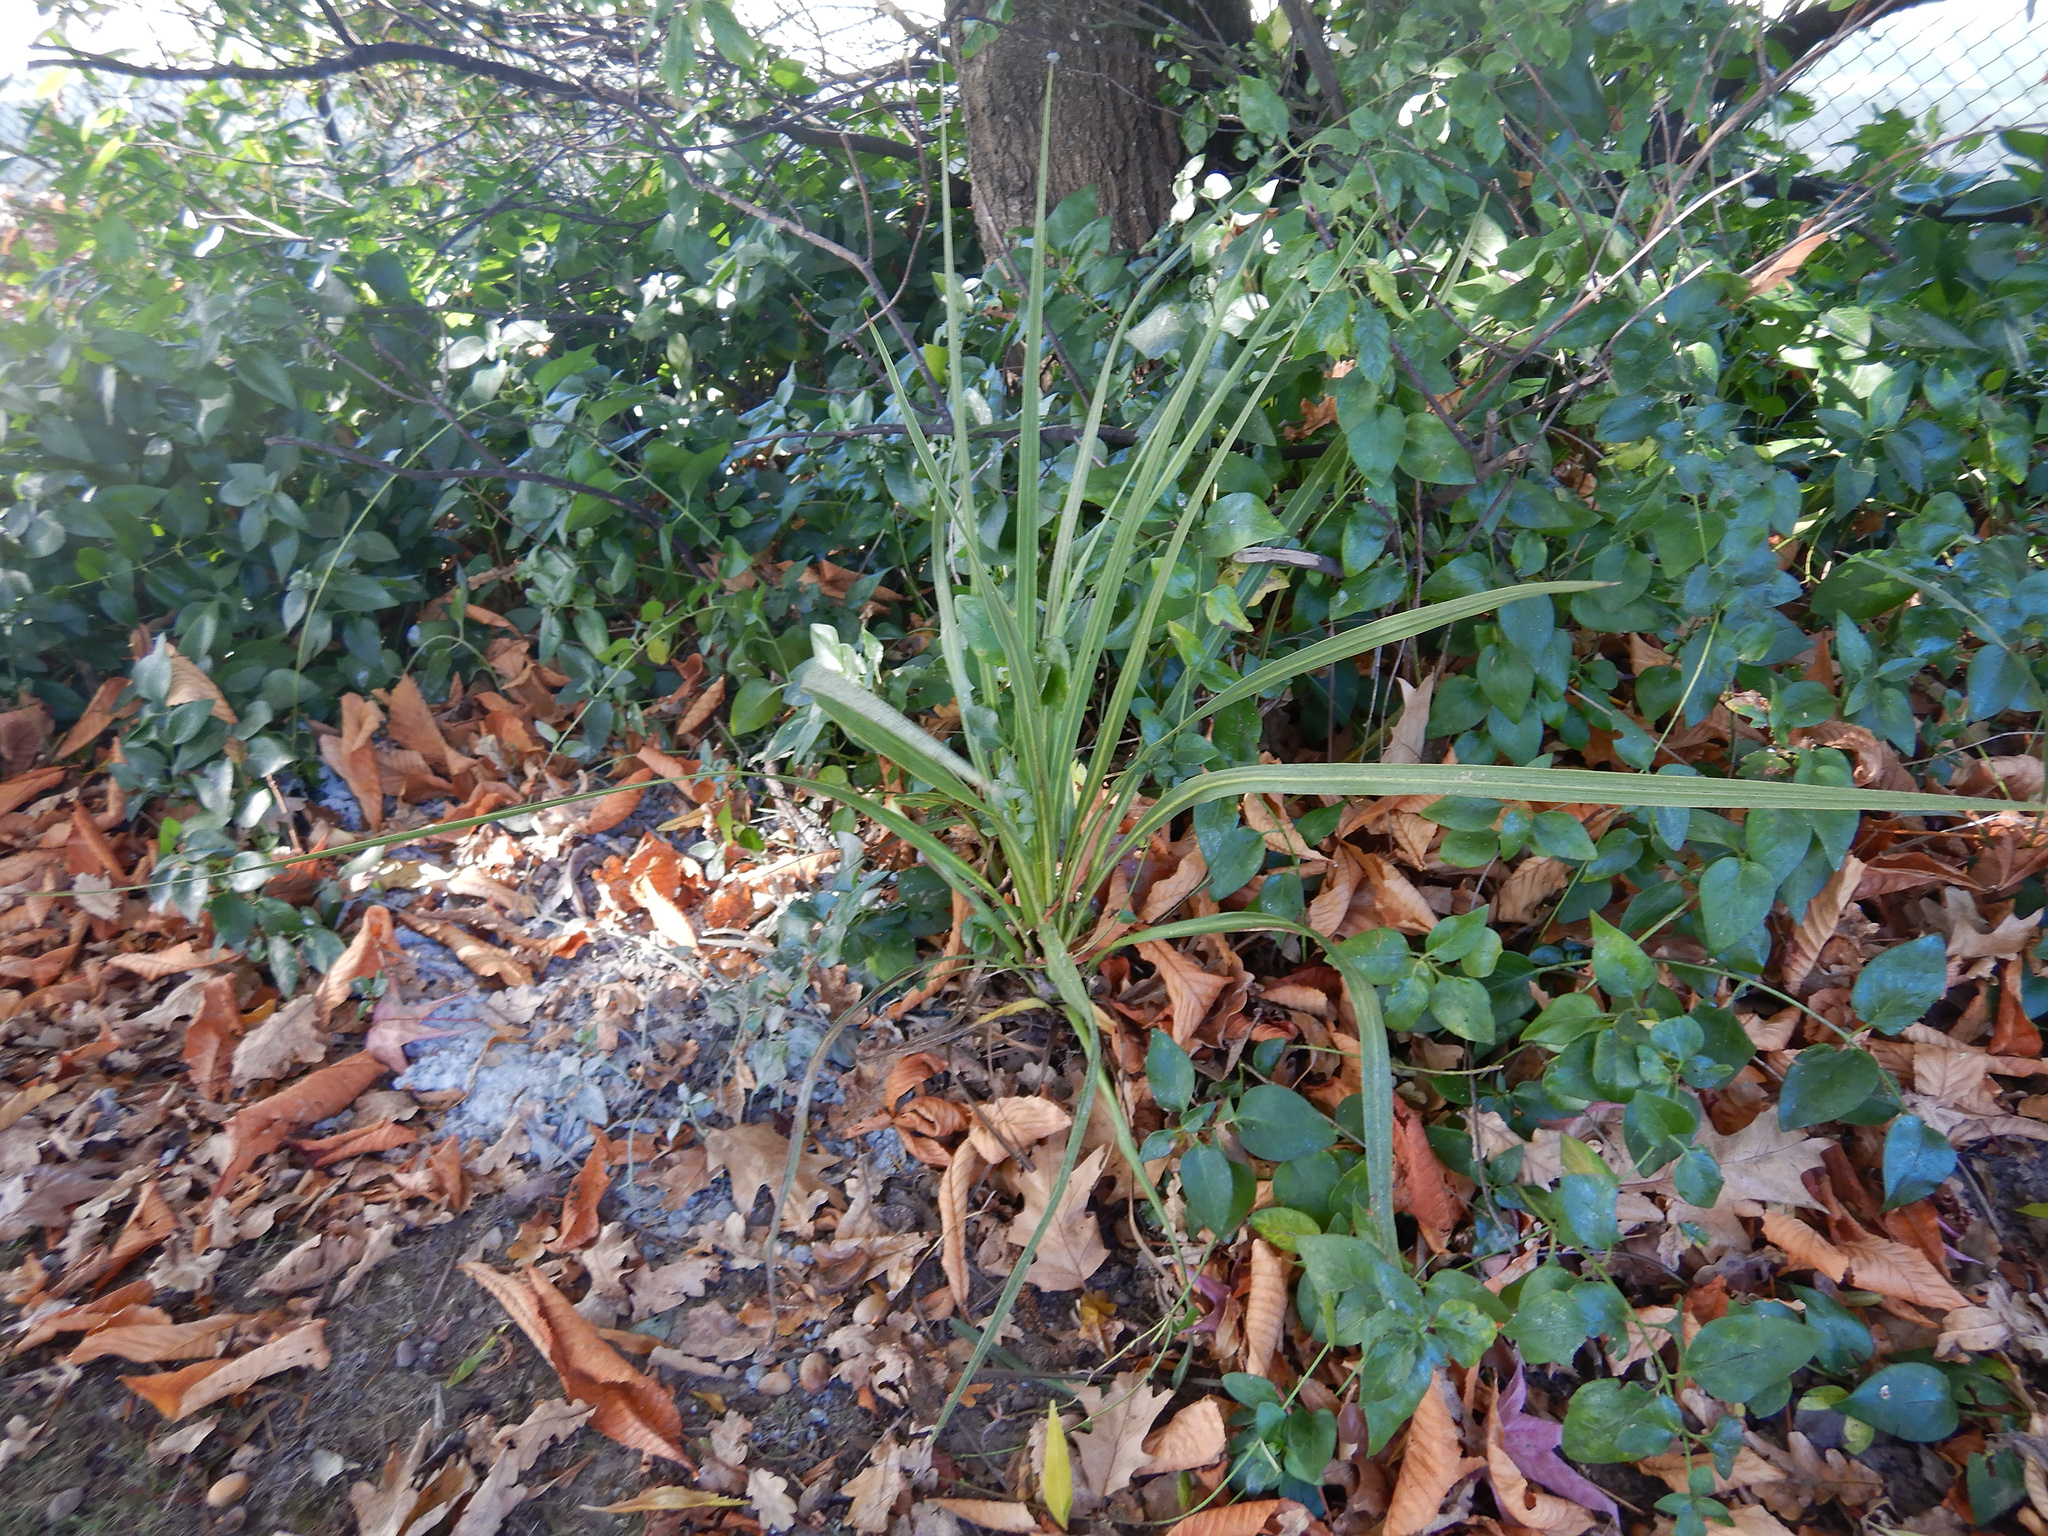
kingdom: Plantae
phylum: Tracheophyta
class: Liliopsida
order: Asparagales
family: Asparagaceae
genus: Cordyline
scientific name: Cordyline australis
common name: Cabbage-palm
